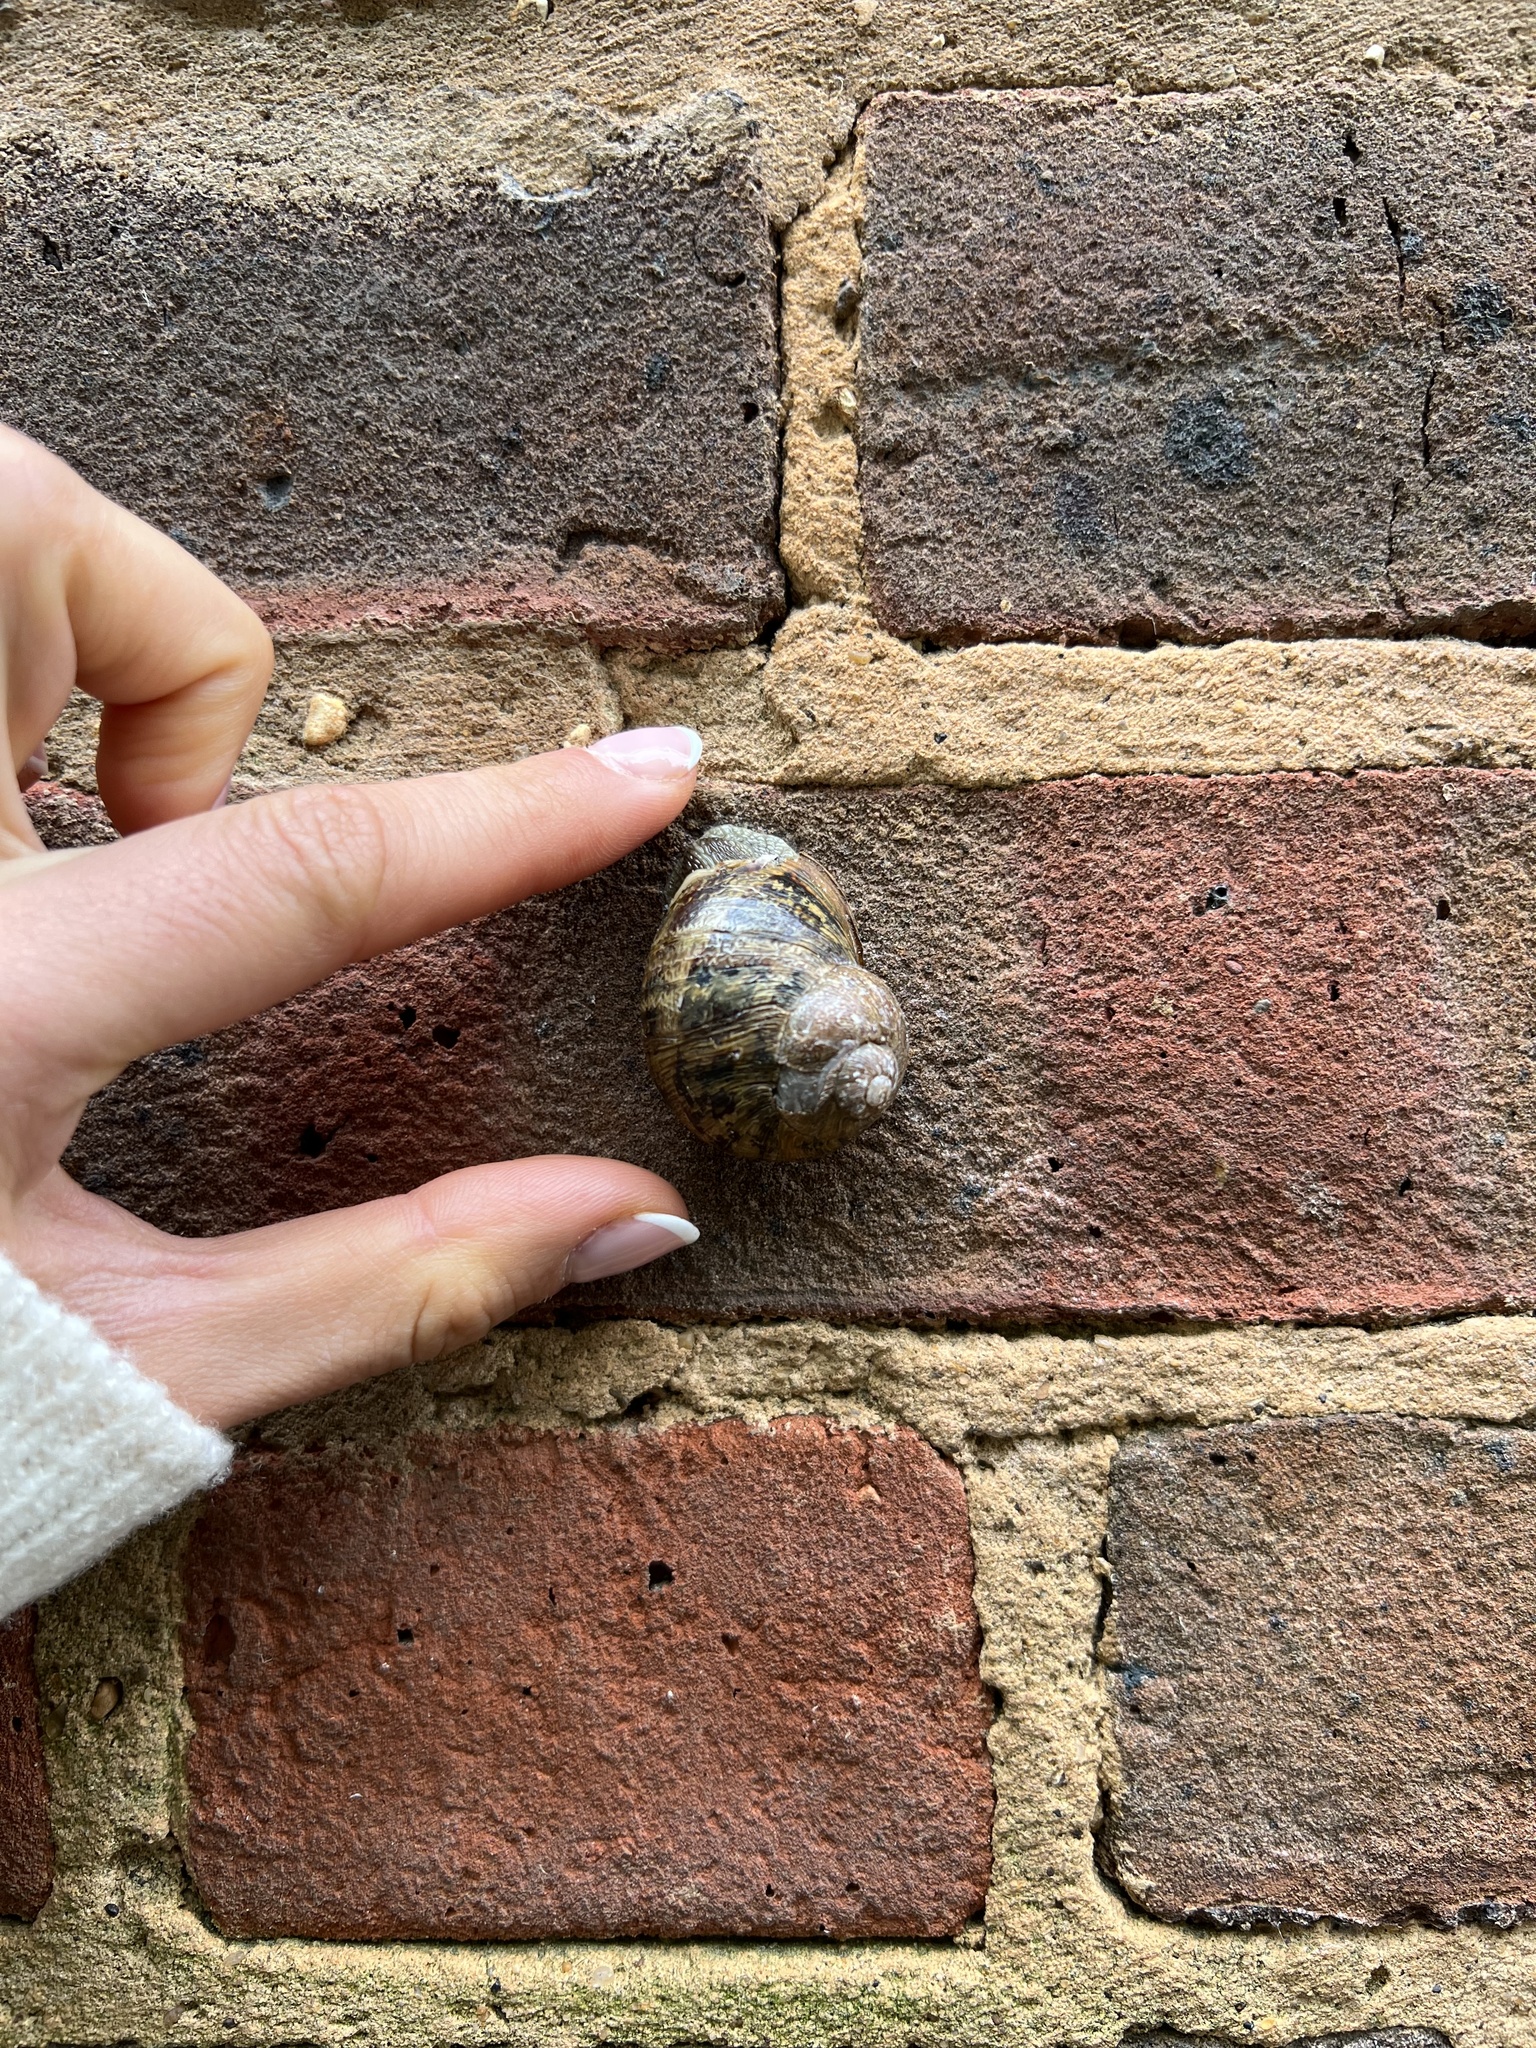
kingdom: Animalia
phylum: Mollusca
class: Gastropoda
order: Stylommatophora
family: Helicidae
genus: Cornu
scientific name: Cornu aspersum
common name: Brown garden snail
